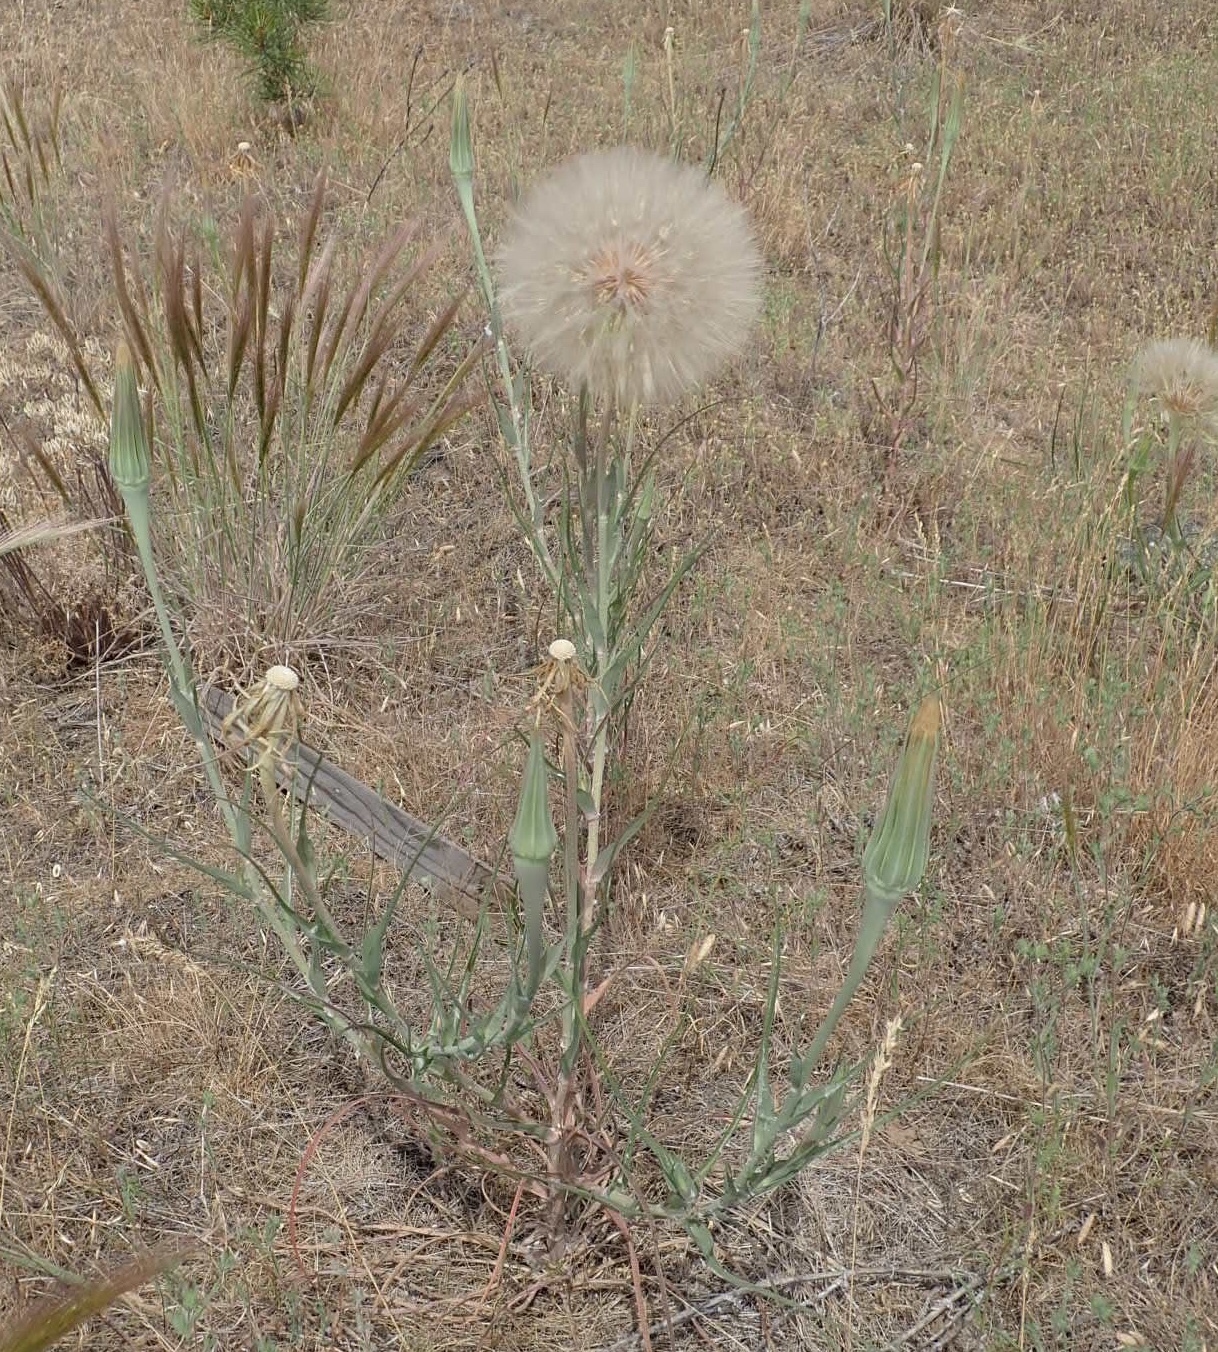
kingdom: Plantae
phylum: Tracheophyta
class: Magnoliopsida
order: Asterales
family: Asteraceae
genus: Tragopogon
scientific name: Tragopogon dubius
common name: Yellow salsify
